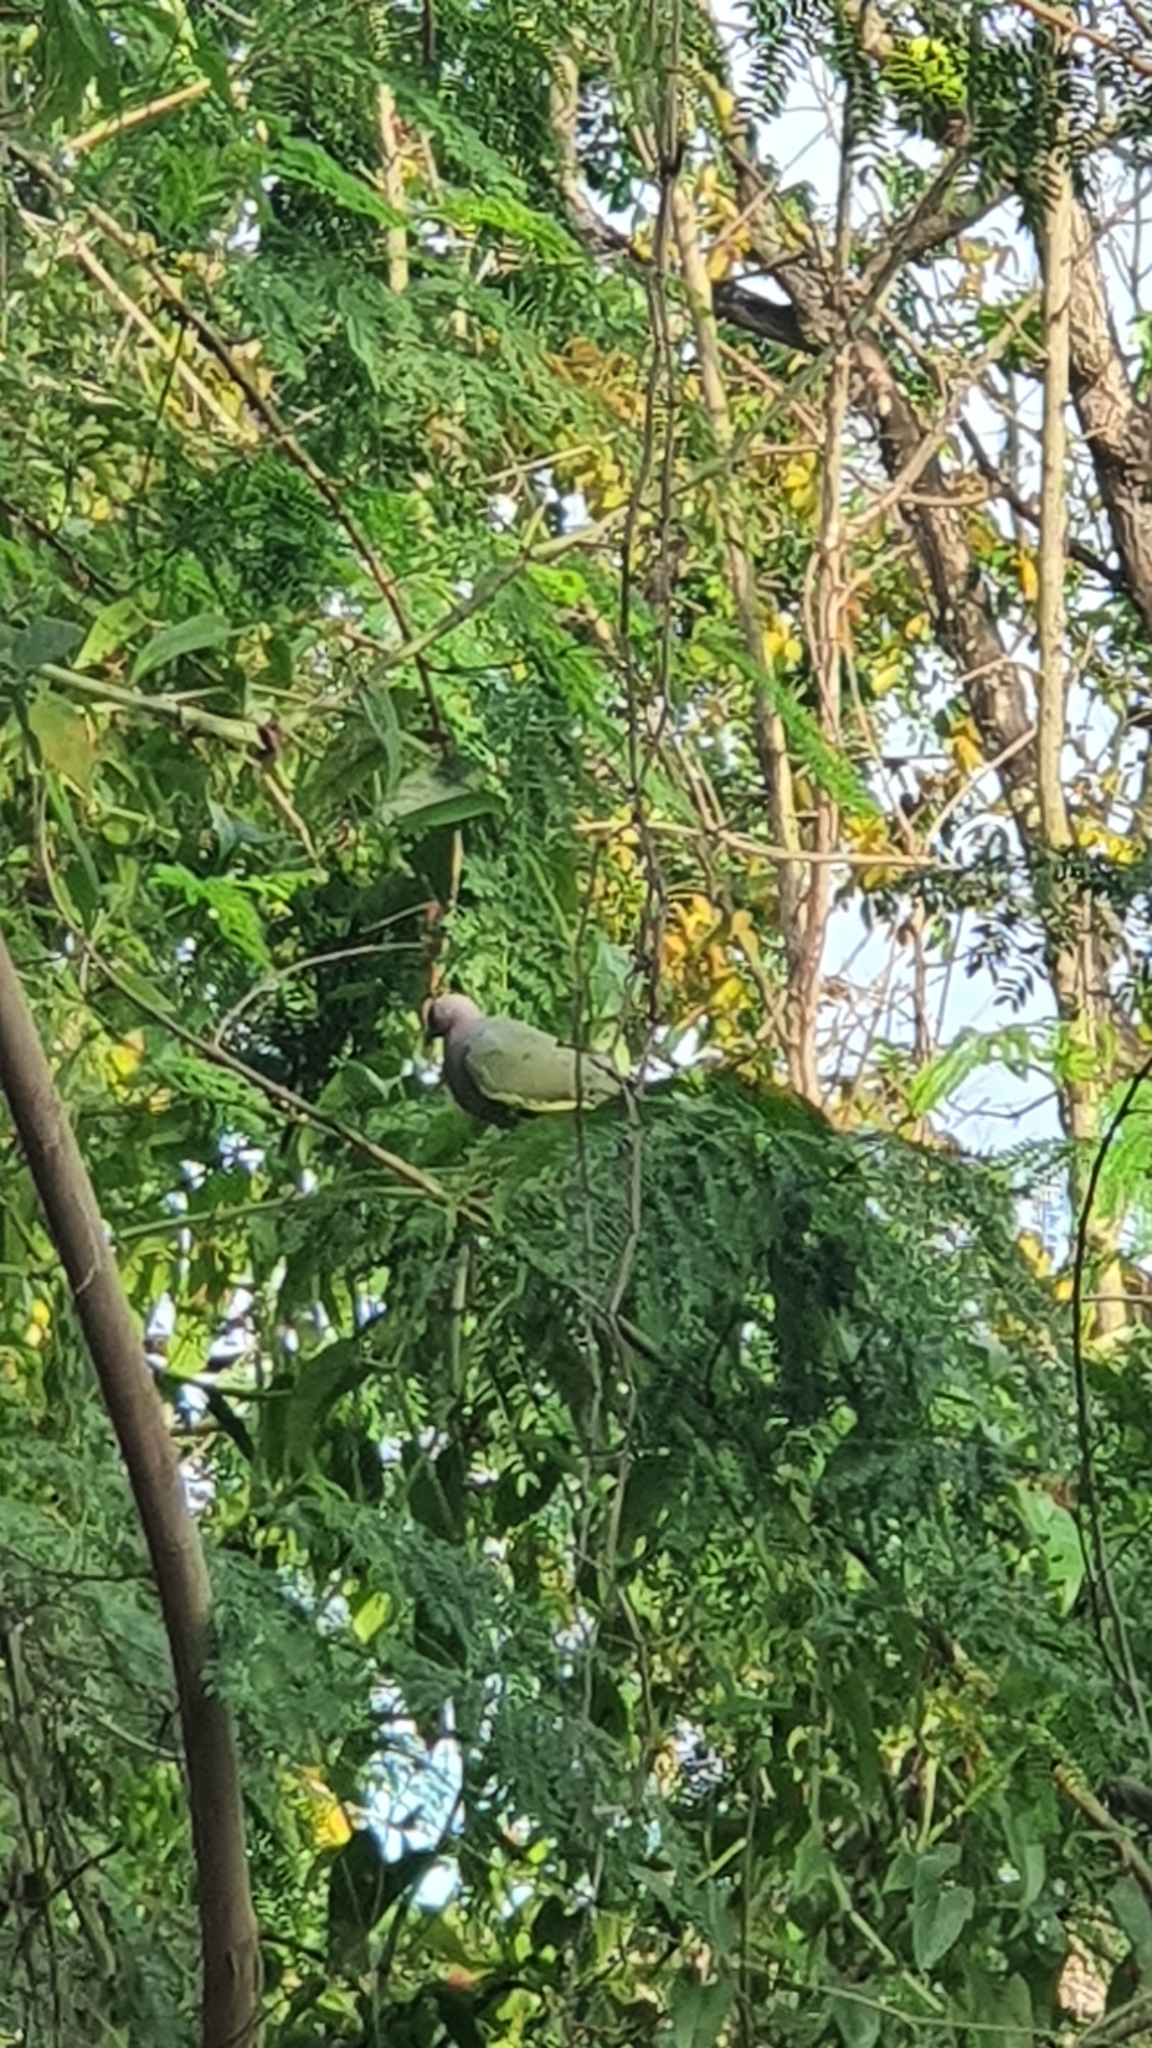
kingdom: Animalia
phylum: Chordata
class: Aves
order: Columbiformes
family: Columbidae
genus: Treron
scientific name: Treron vernans
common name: Pink-necked green pigeon
